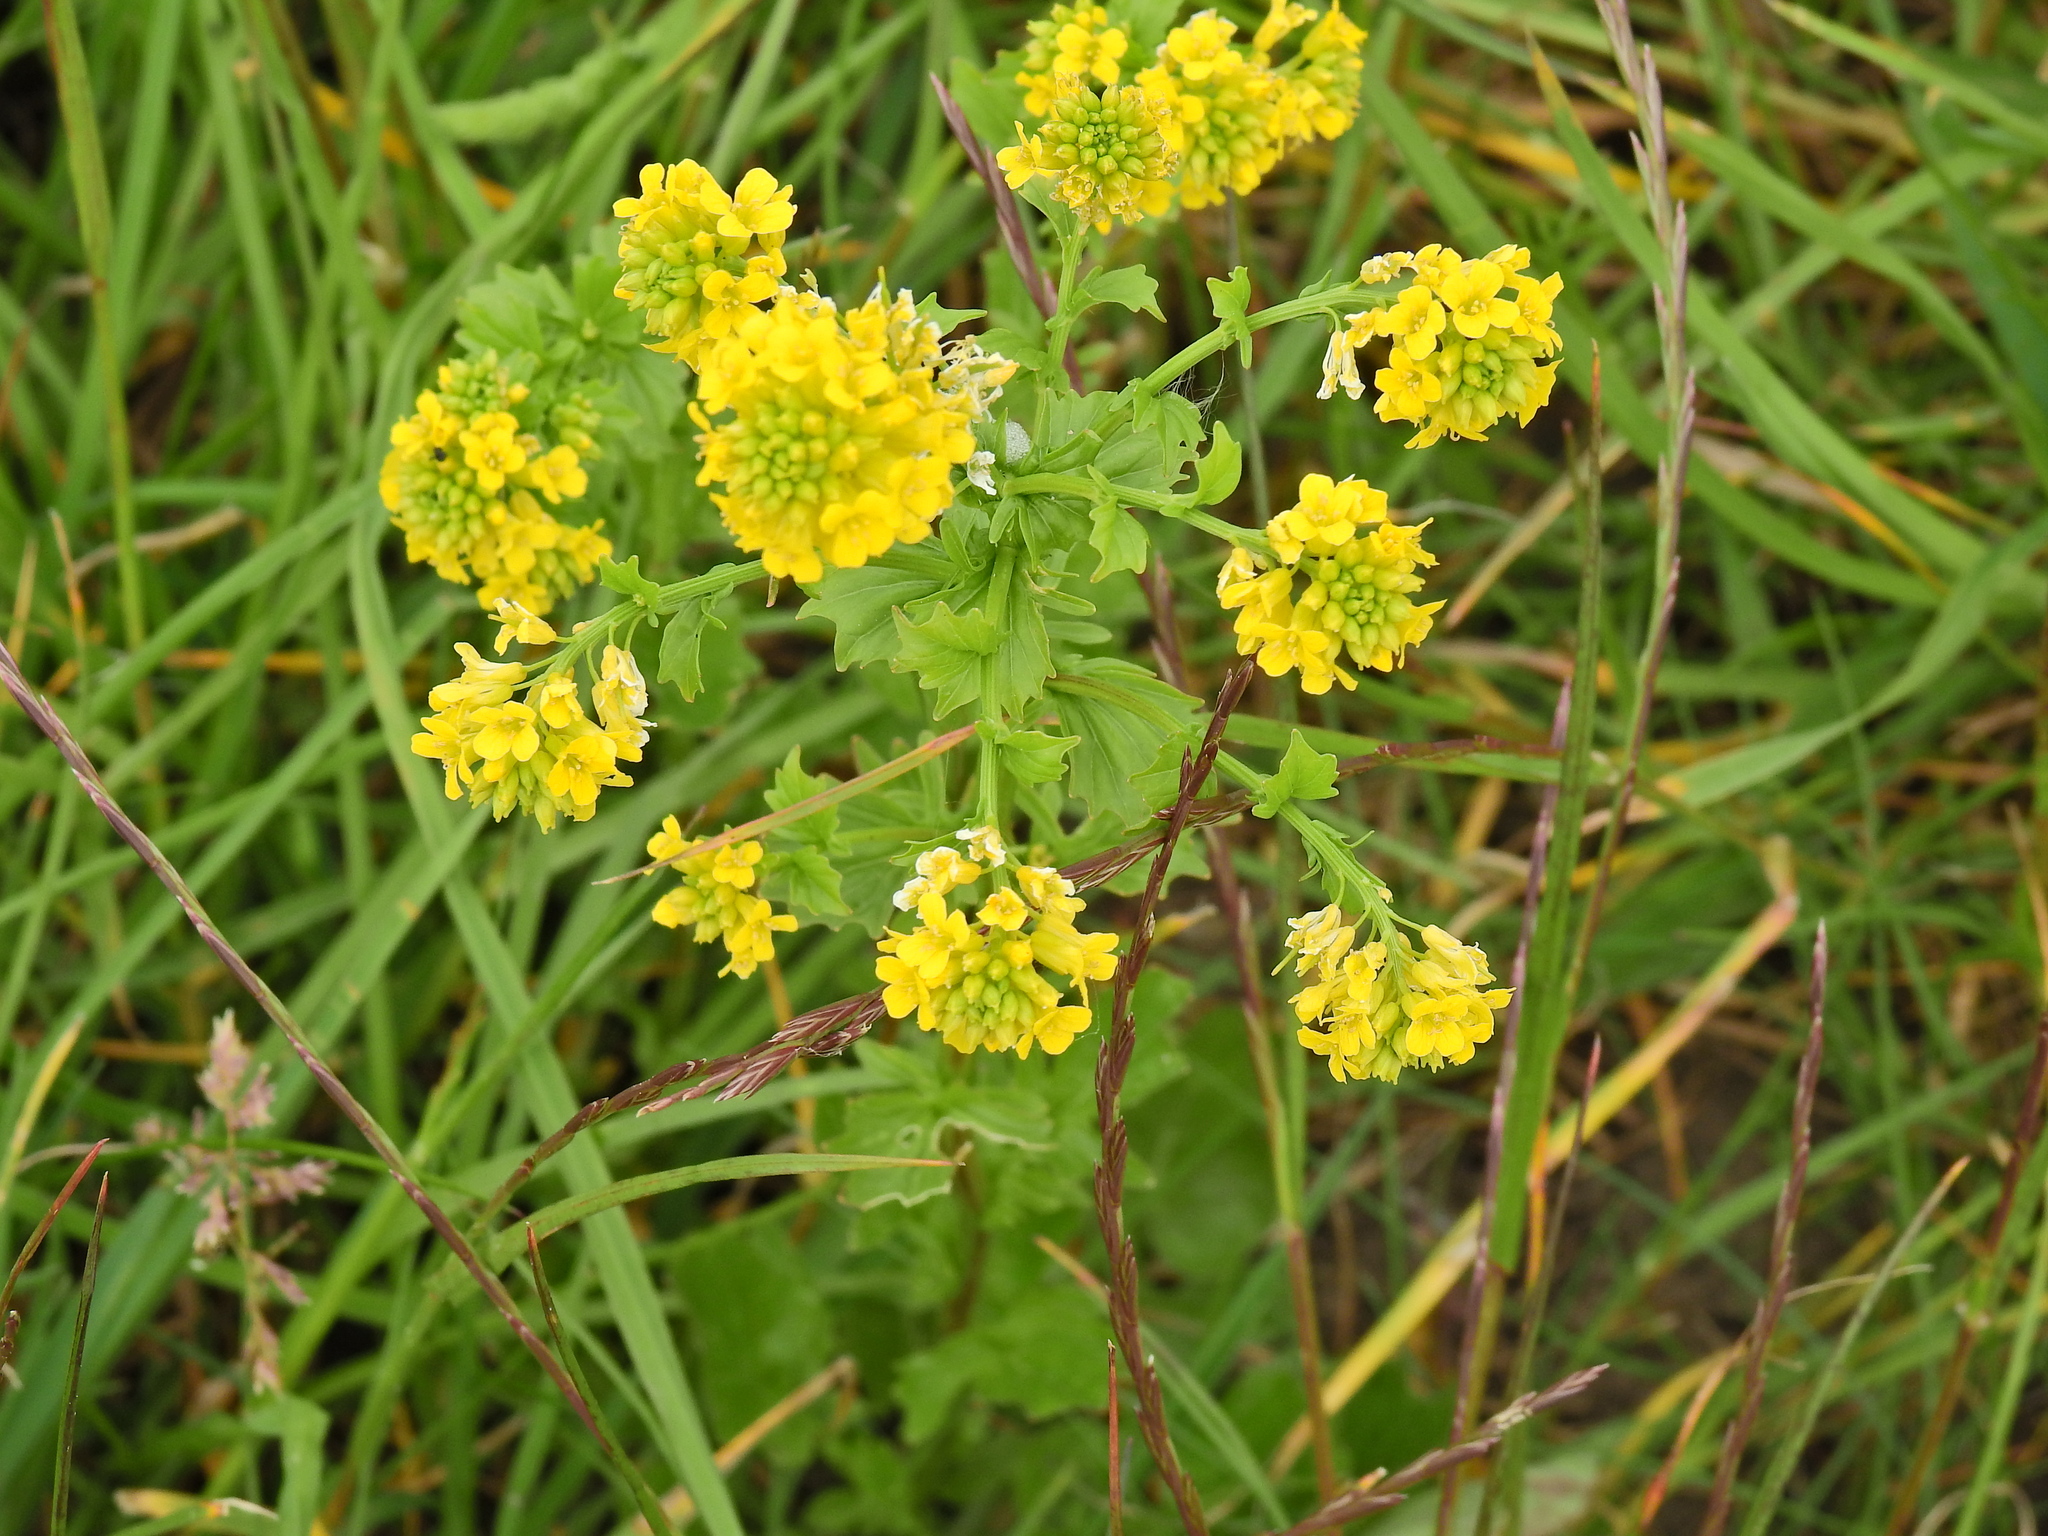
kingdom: Plantae
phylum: Tracheophyta
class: Magnoliopsida
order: Brassicales
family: Brassicaceae
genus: Barbarea
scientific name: Barbarea vulgaris
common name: Cressy-greens
